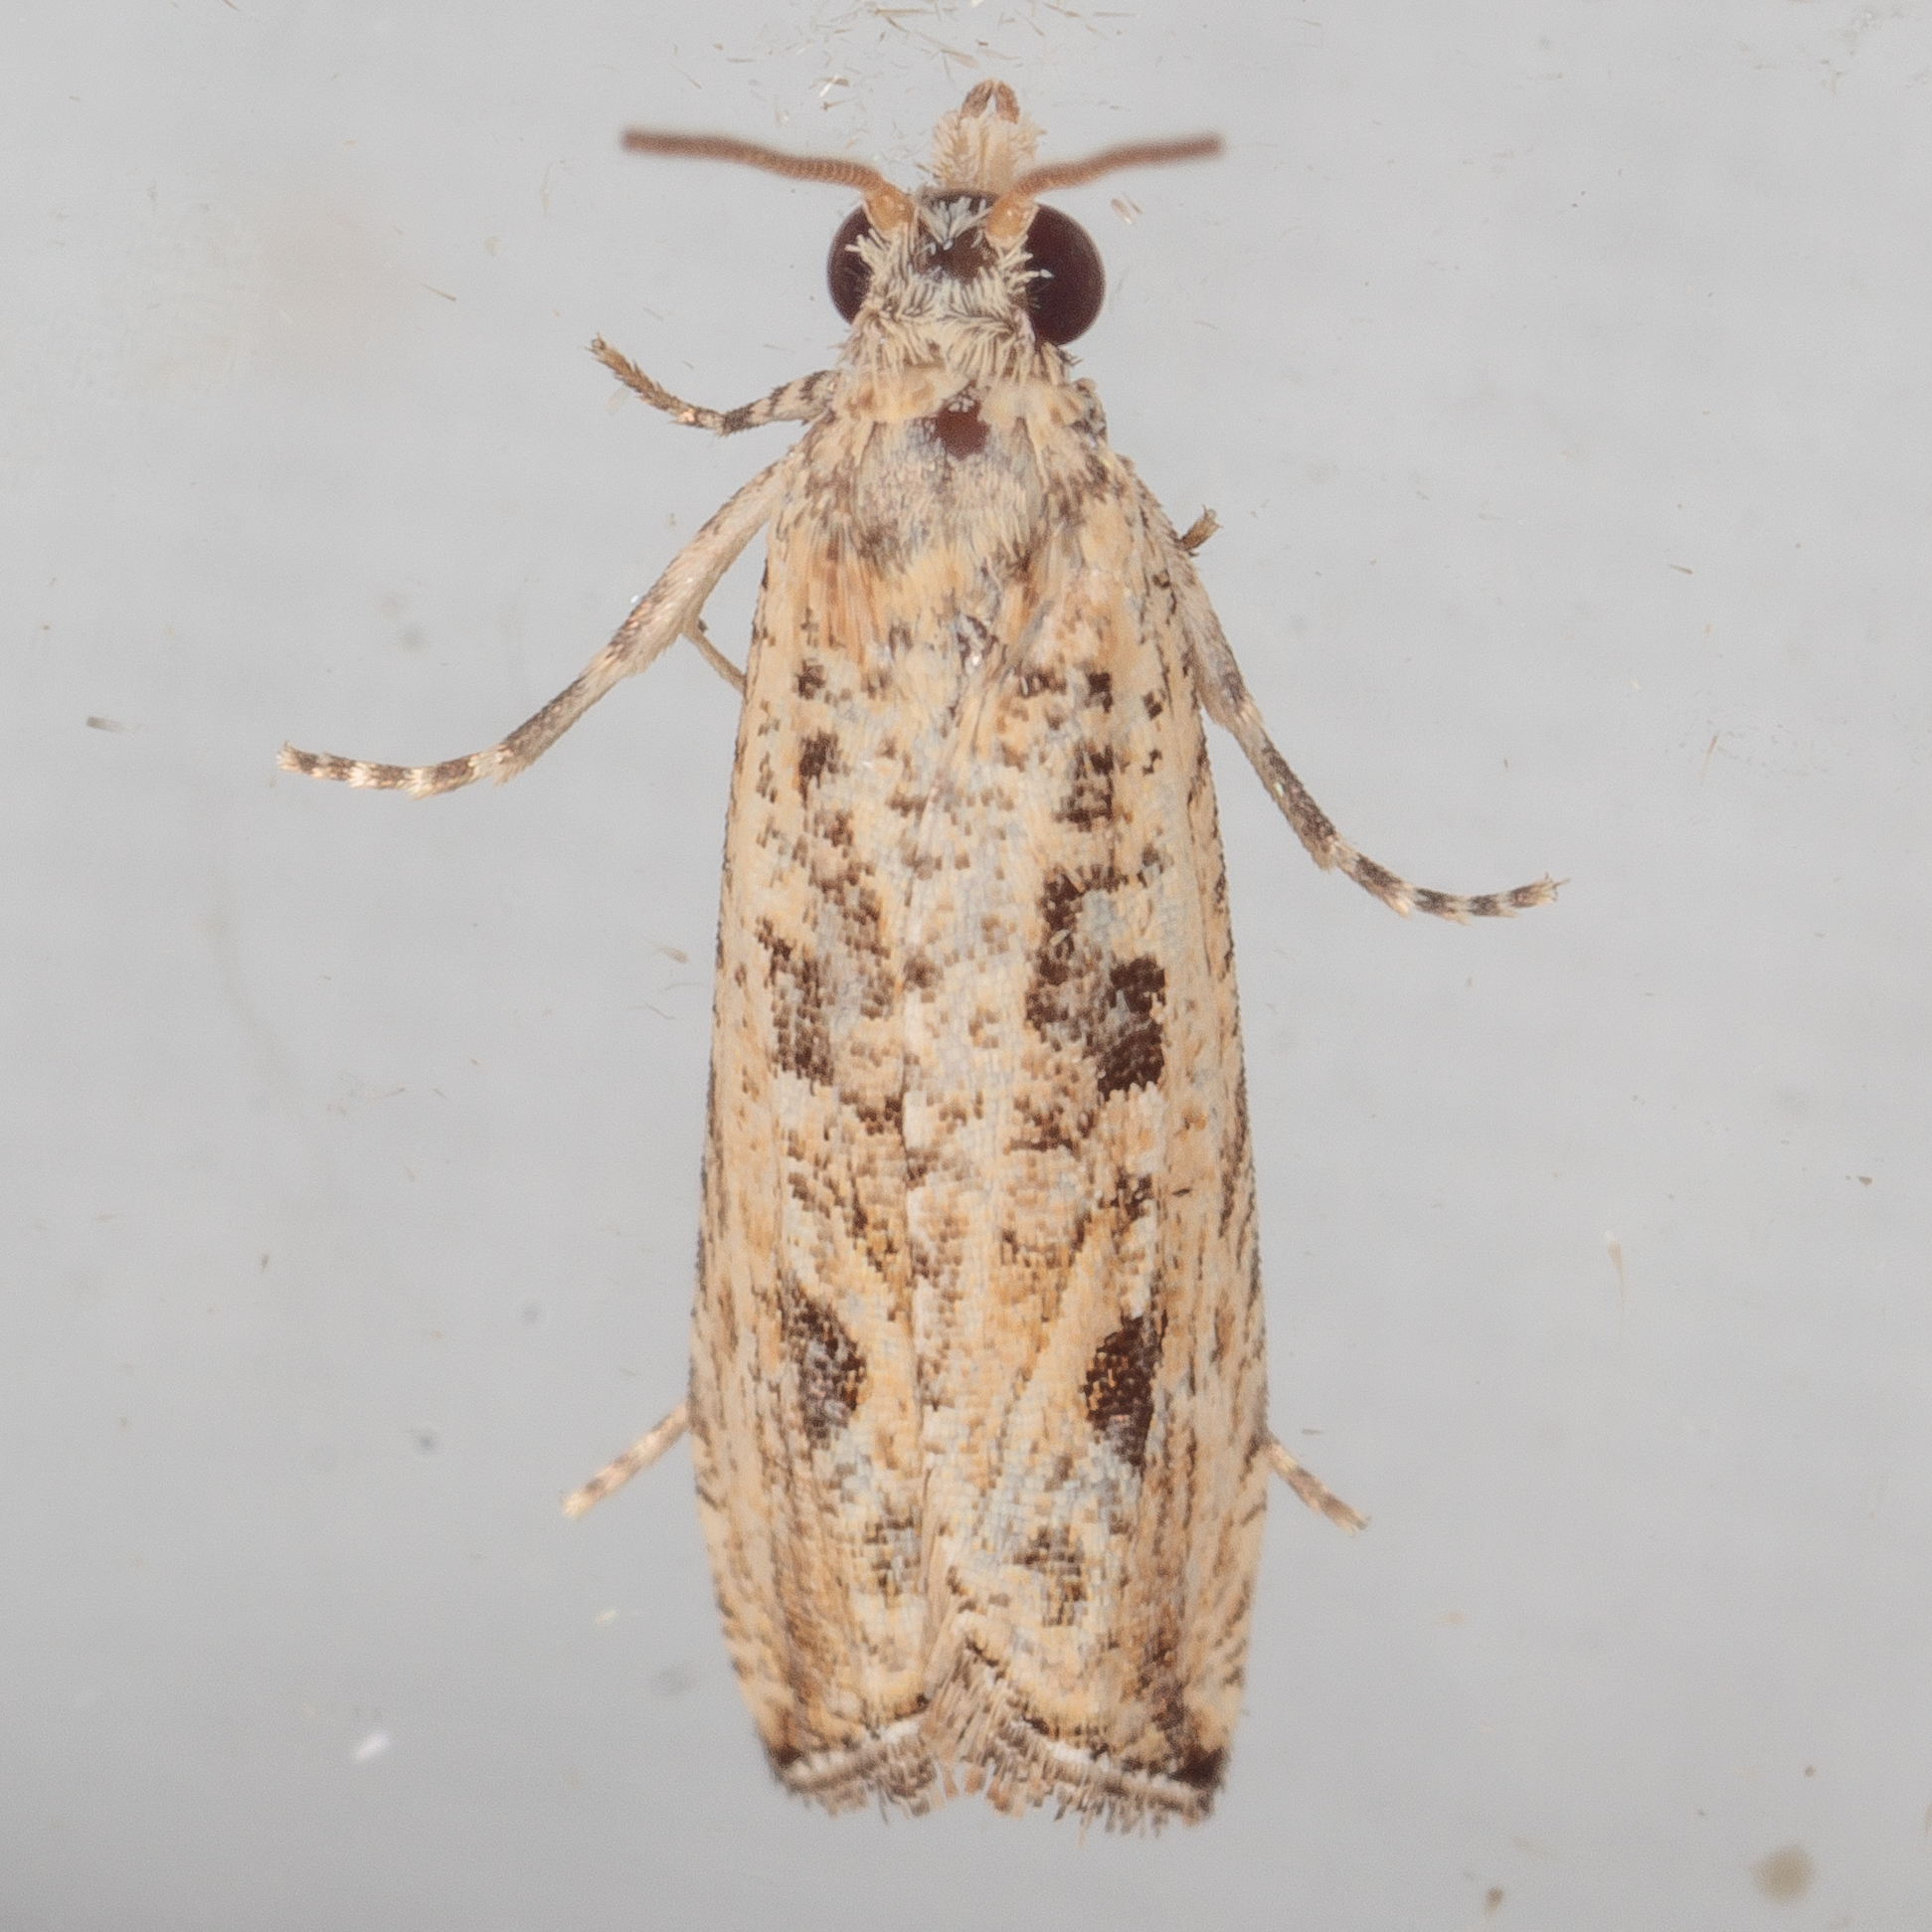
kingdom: Animalia
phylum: Arthropoda
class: Insecta
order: Lepidoptera
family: Tortricidae
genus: Bactra
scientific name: Bactra verutana
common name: Javelin moth
